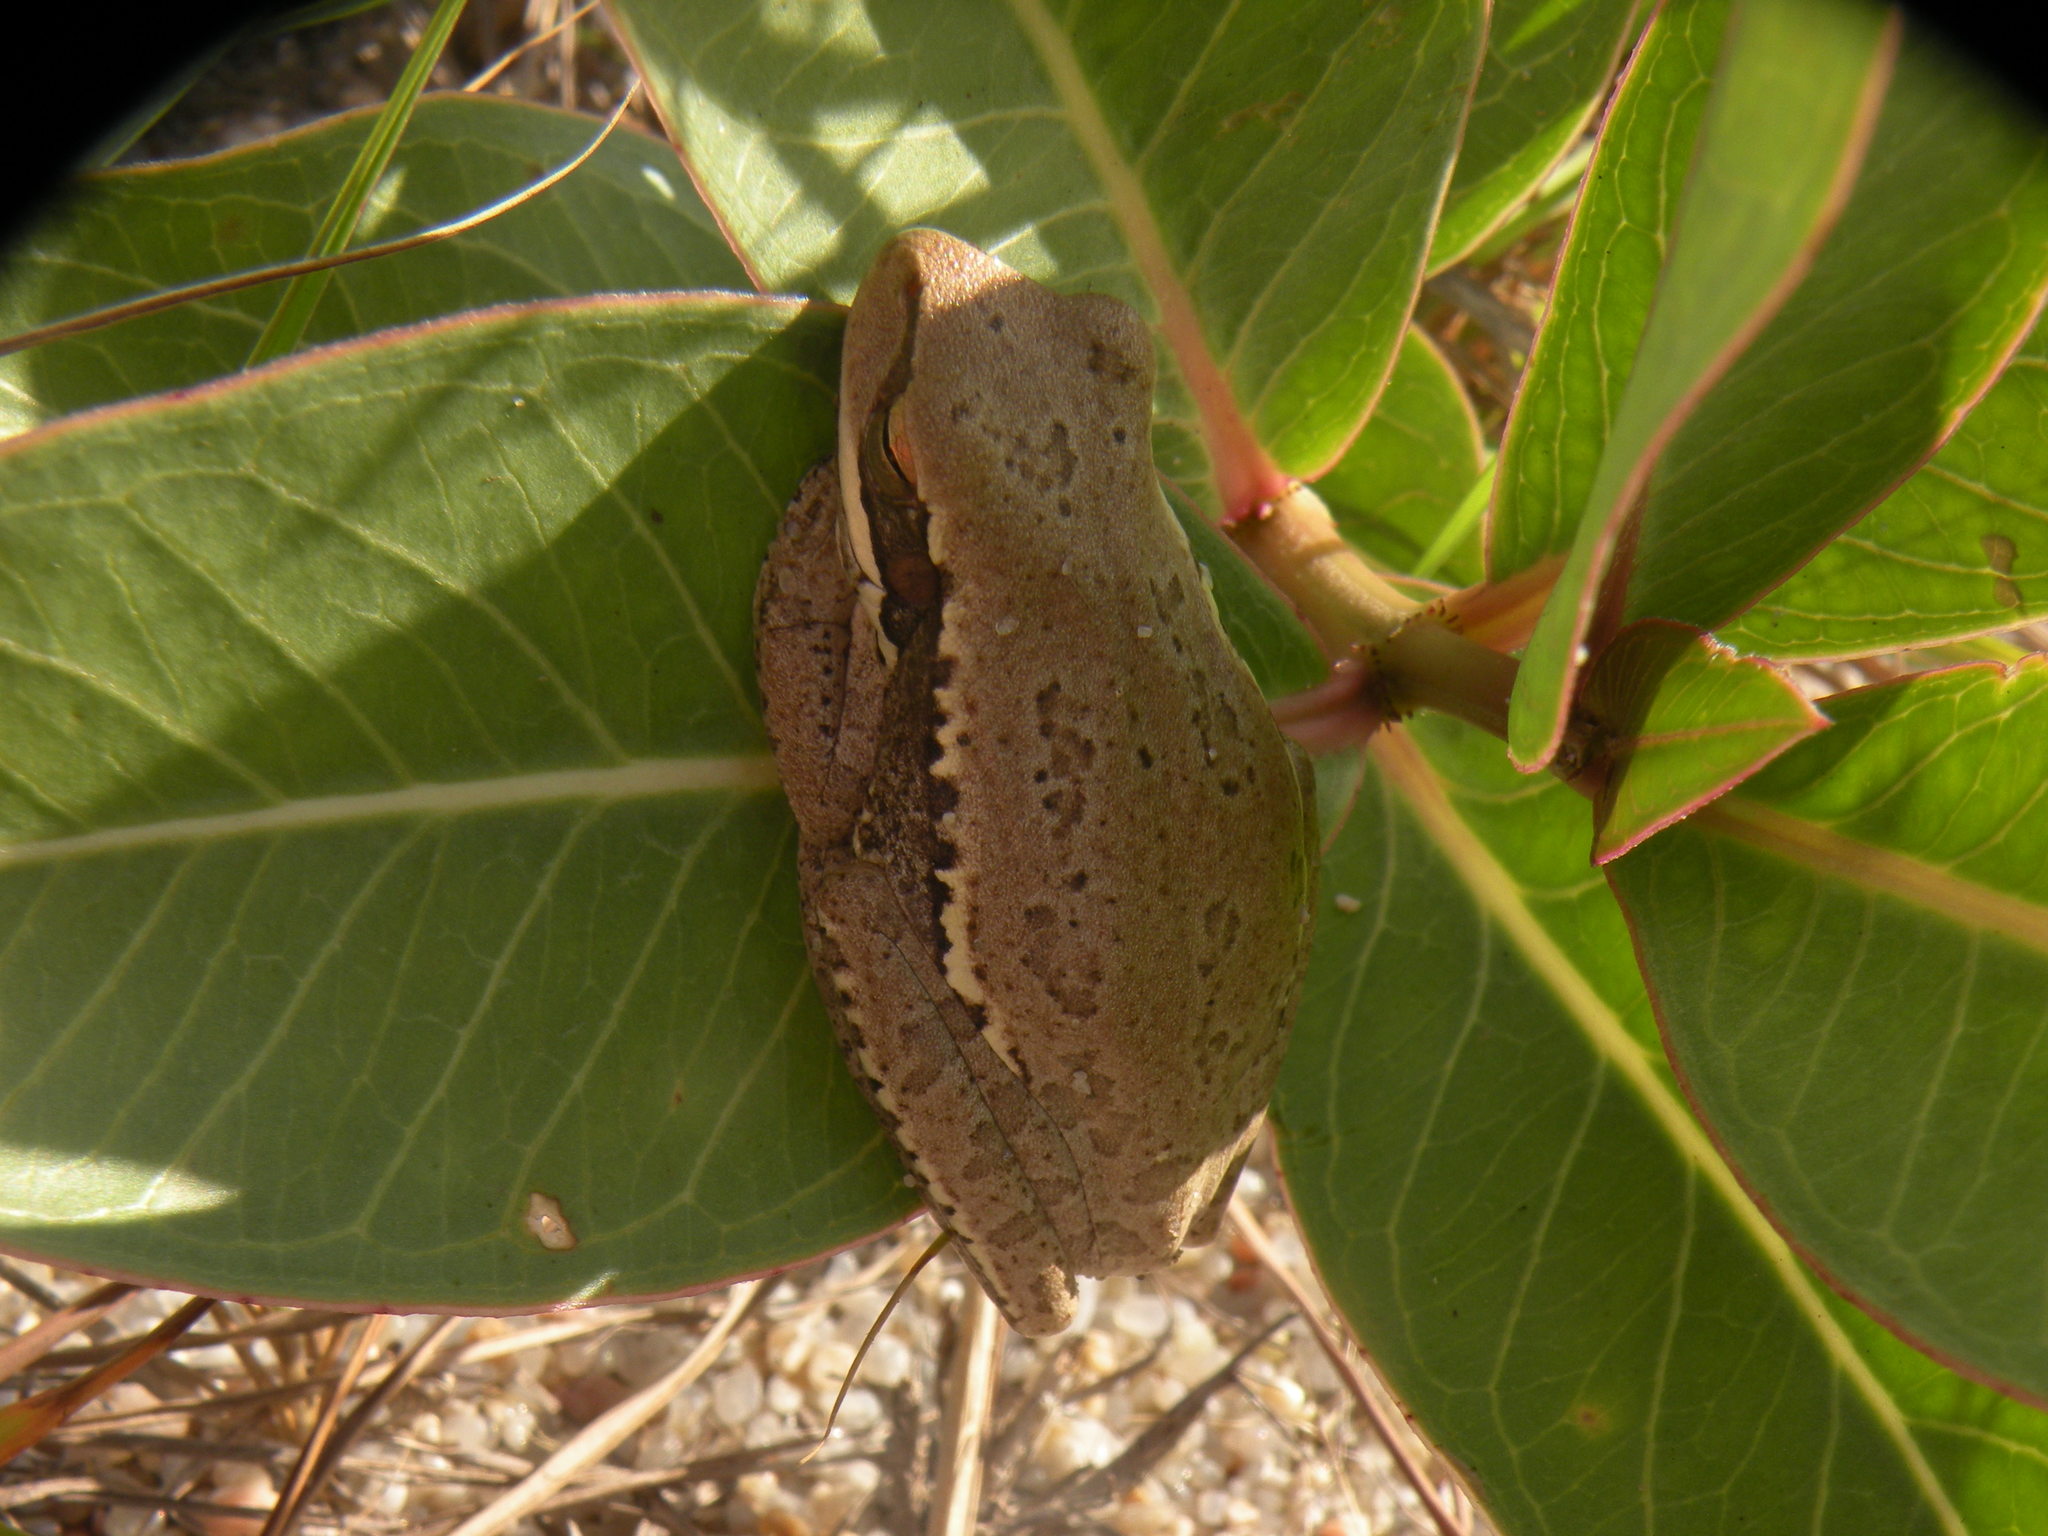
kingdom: Animalia
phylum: Chordata
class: Amphibia
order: Anura
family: Hylidae
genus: Boana
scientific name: Boana pulchella
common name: Montevideo treefrog
